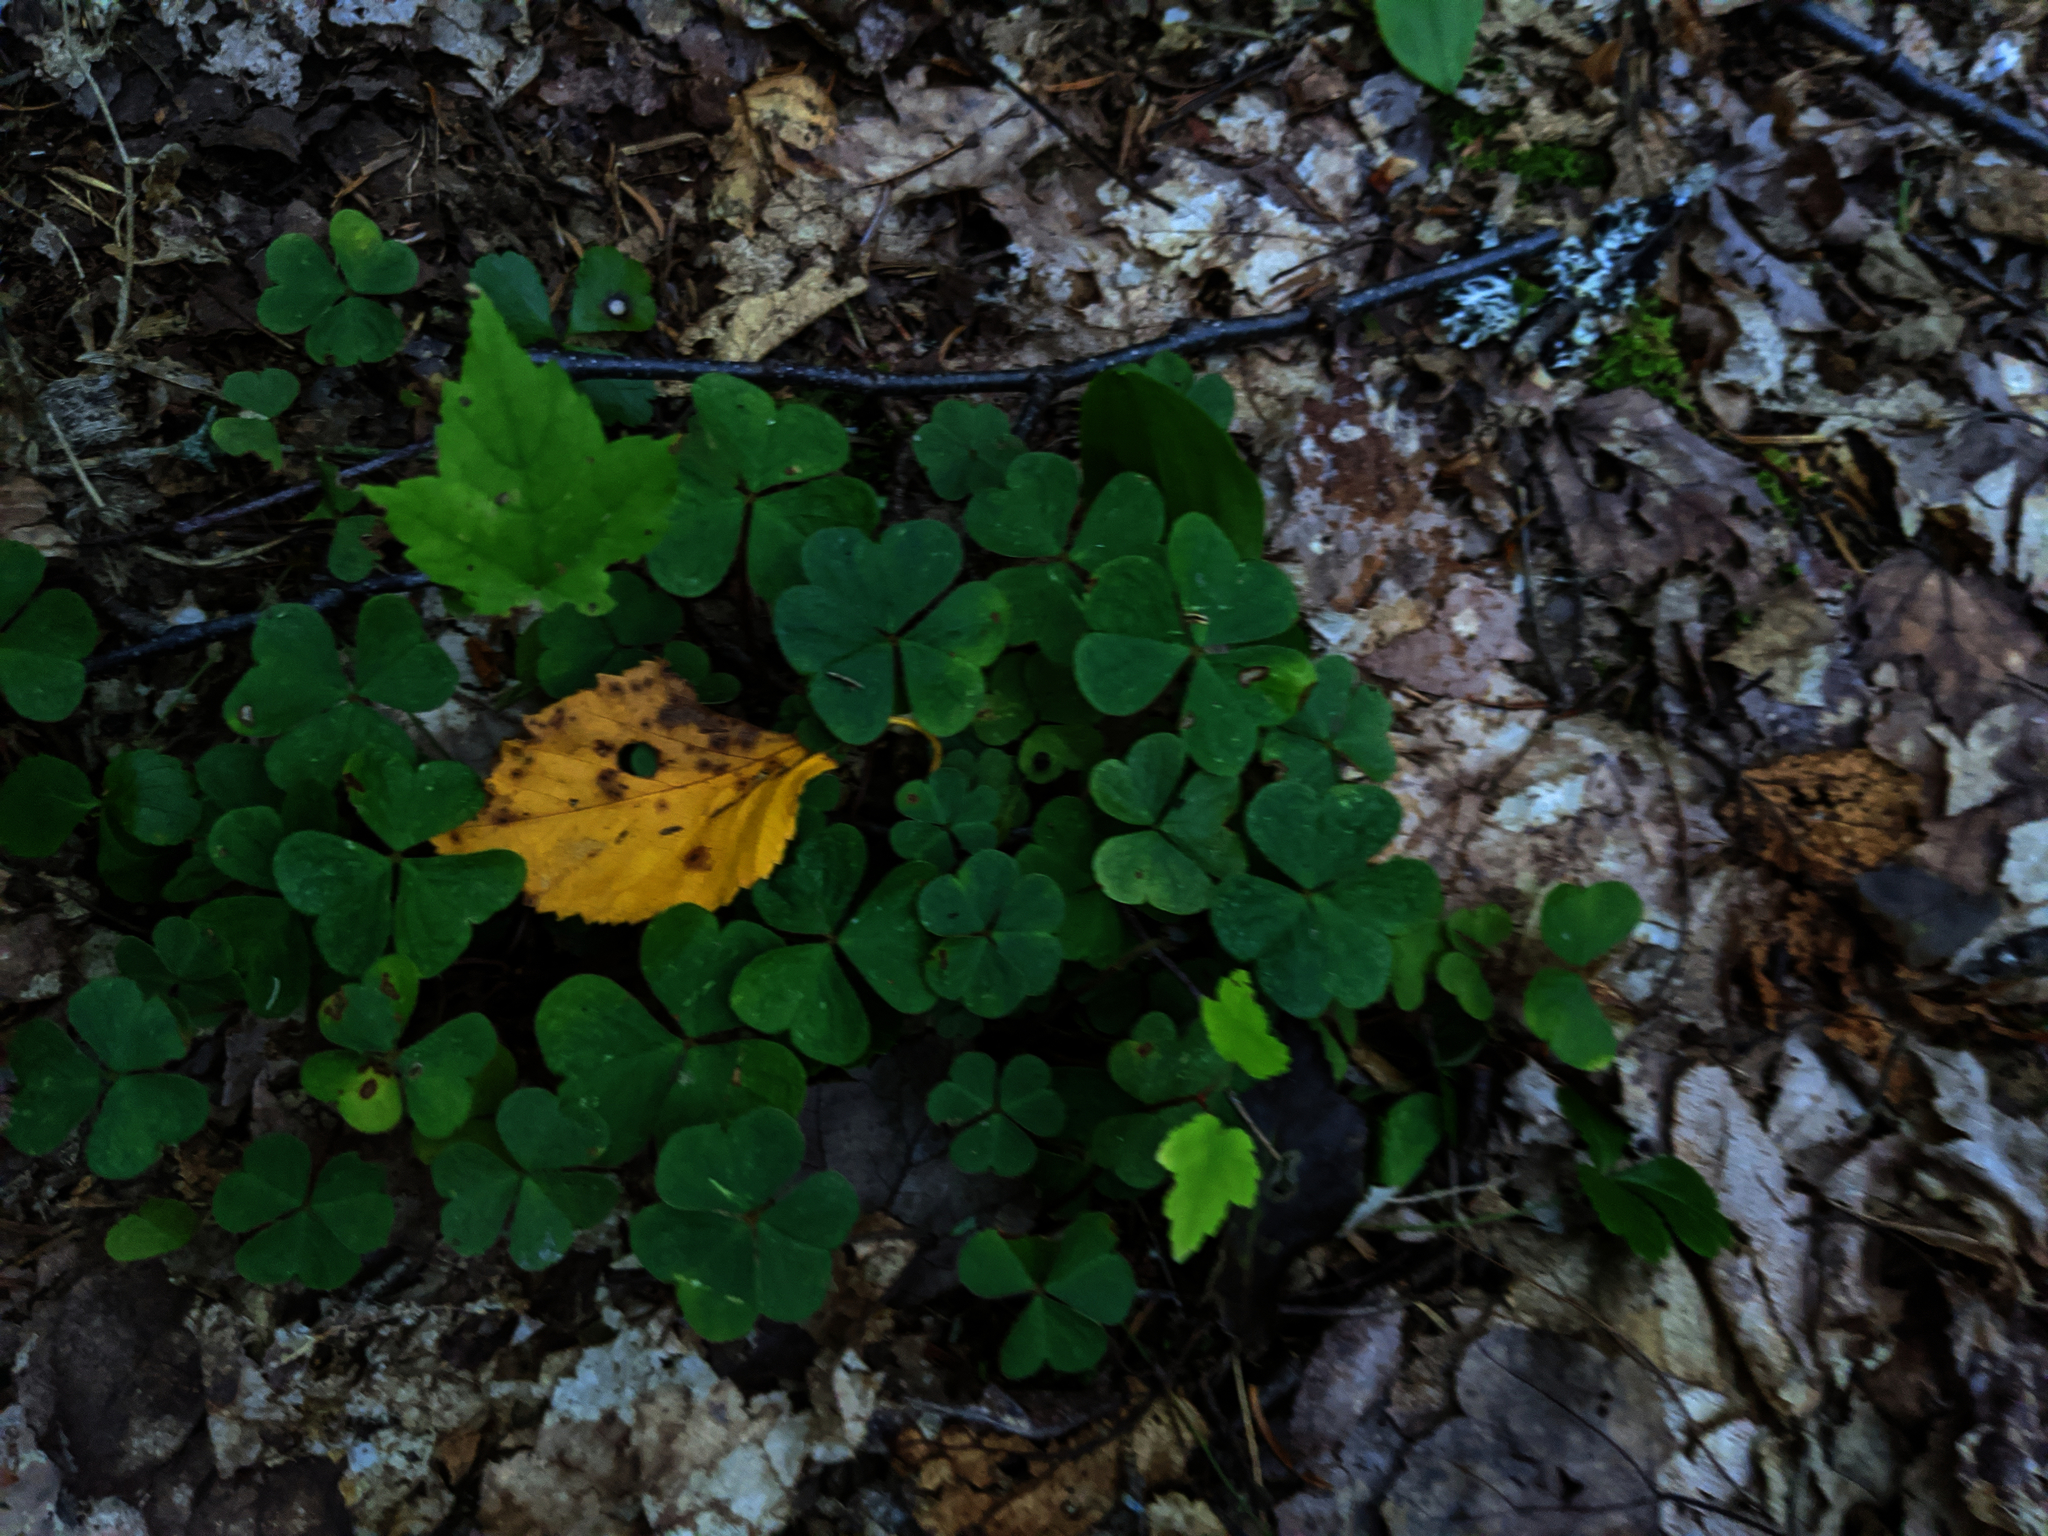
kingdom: Plantae
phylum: Tracheophyta
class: Magnoliopsida
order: Oxalidales
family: Oxalidaceae
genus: Oxalis
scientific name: Oxalis montana
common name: American wood-sorrel
